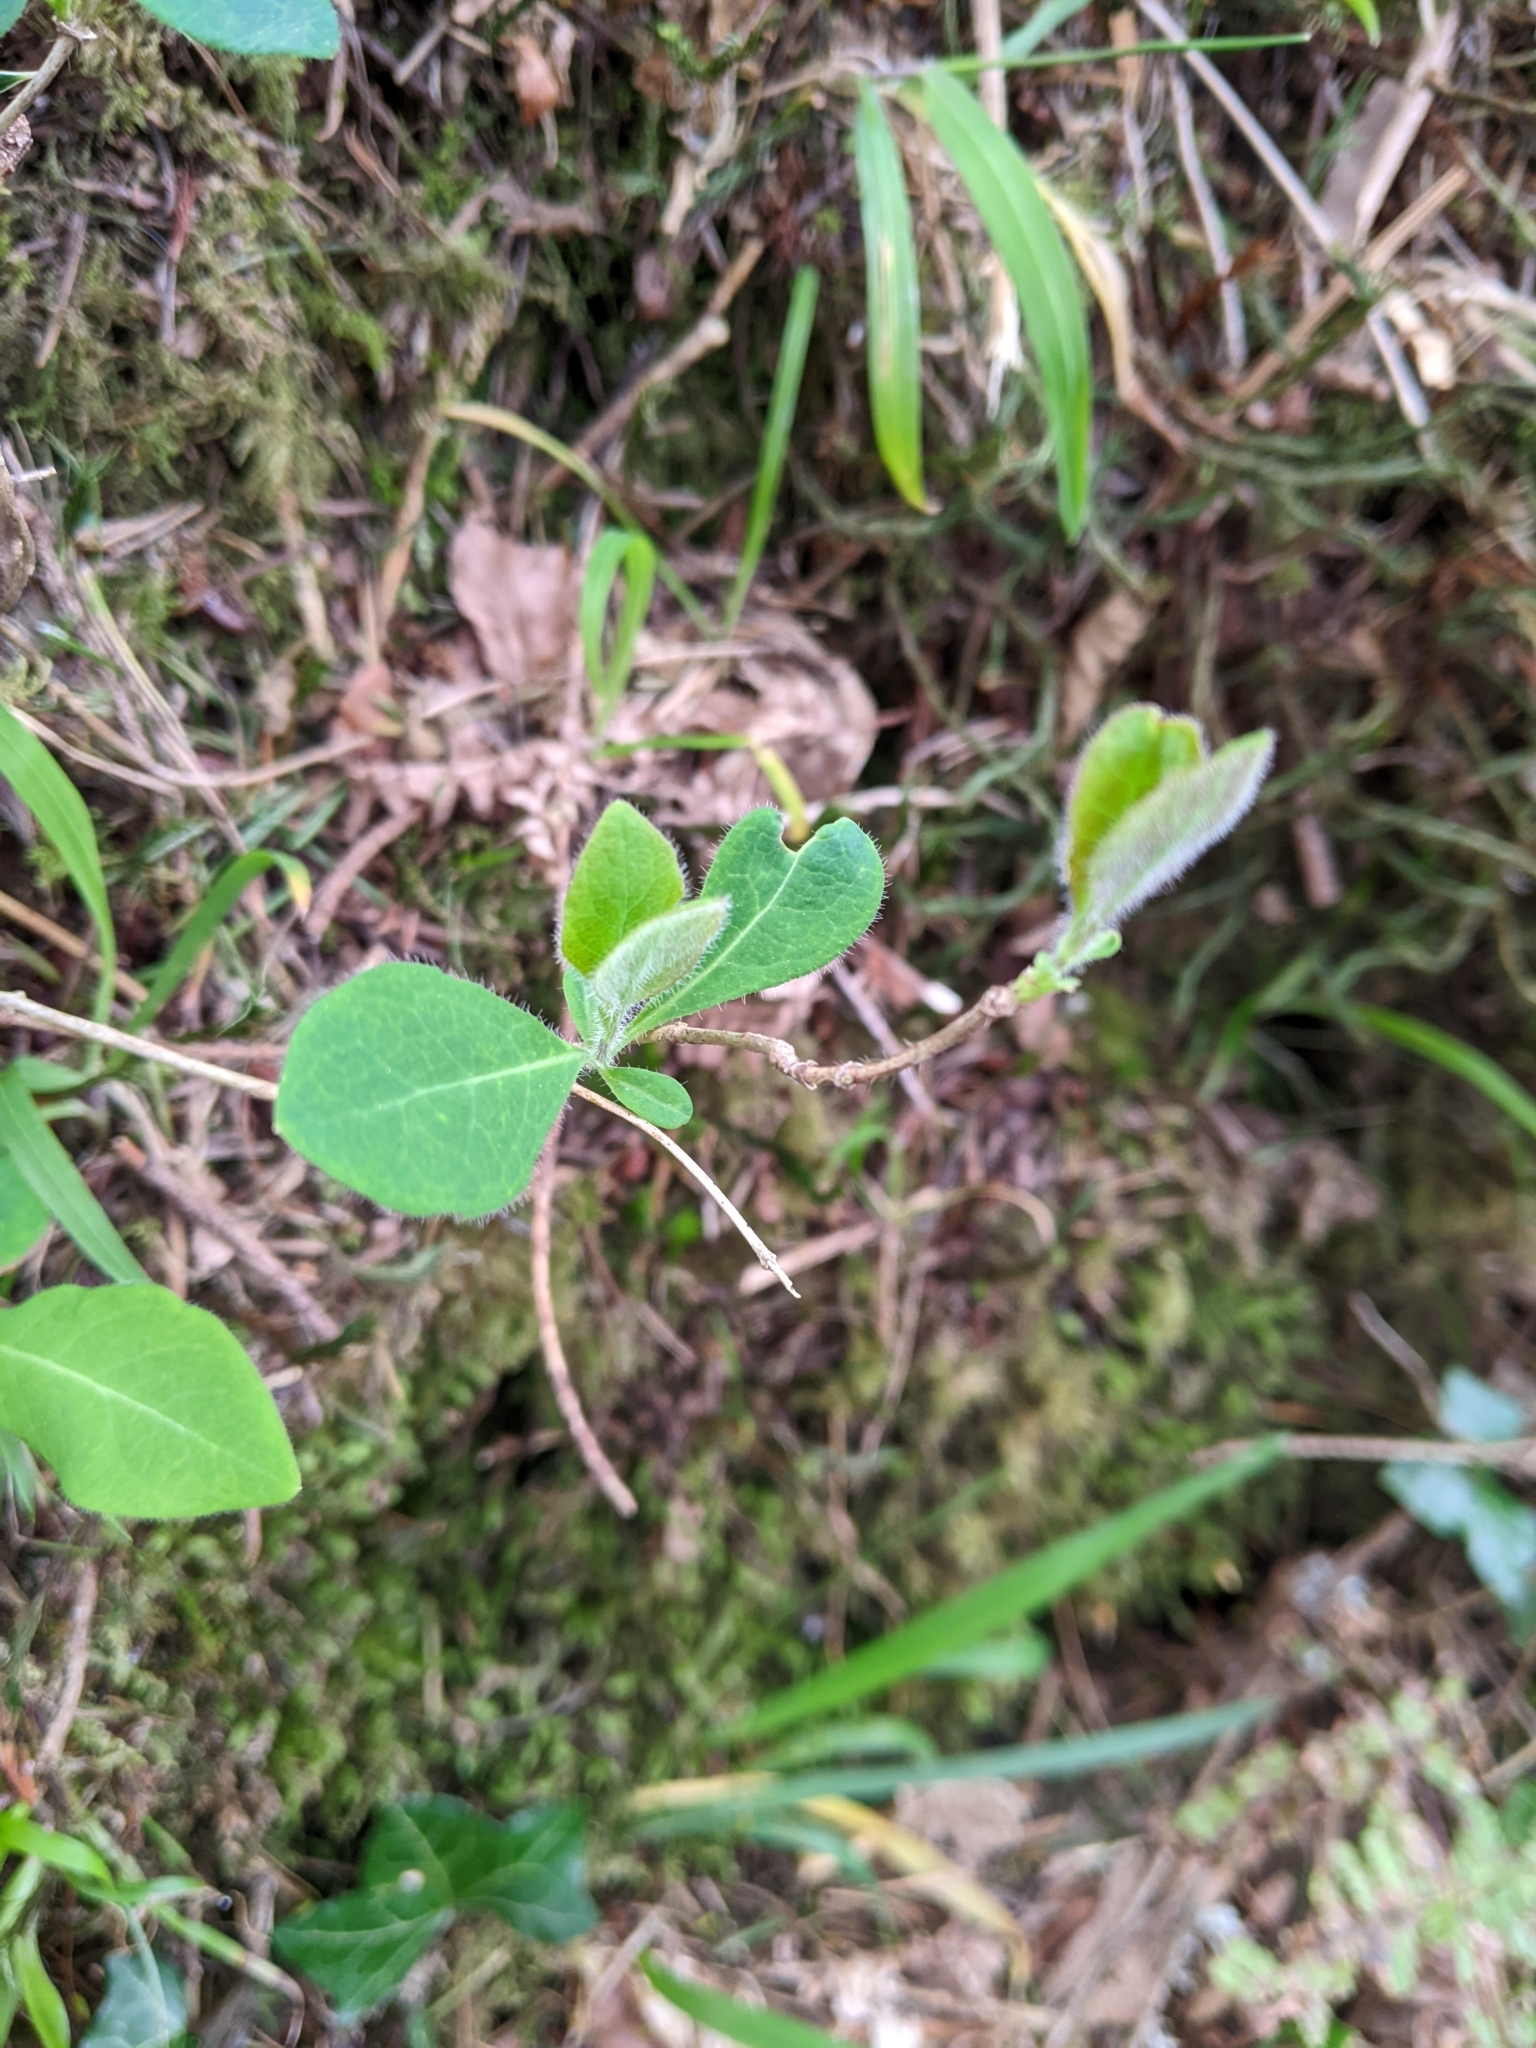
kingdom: Plantae
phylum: Tracheophyta
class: Magnoliopsida
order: Dipsacales
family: Caprifoliaceae
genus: Lonicera
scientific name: Lonicera periclymenum
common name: European honeysuckle
